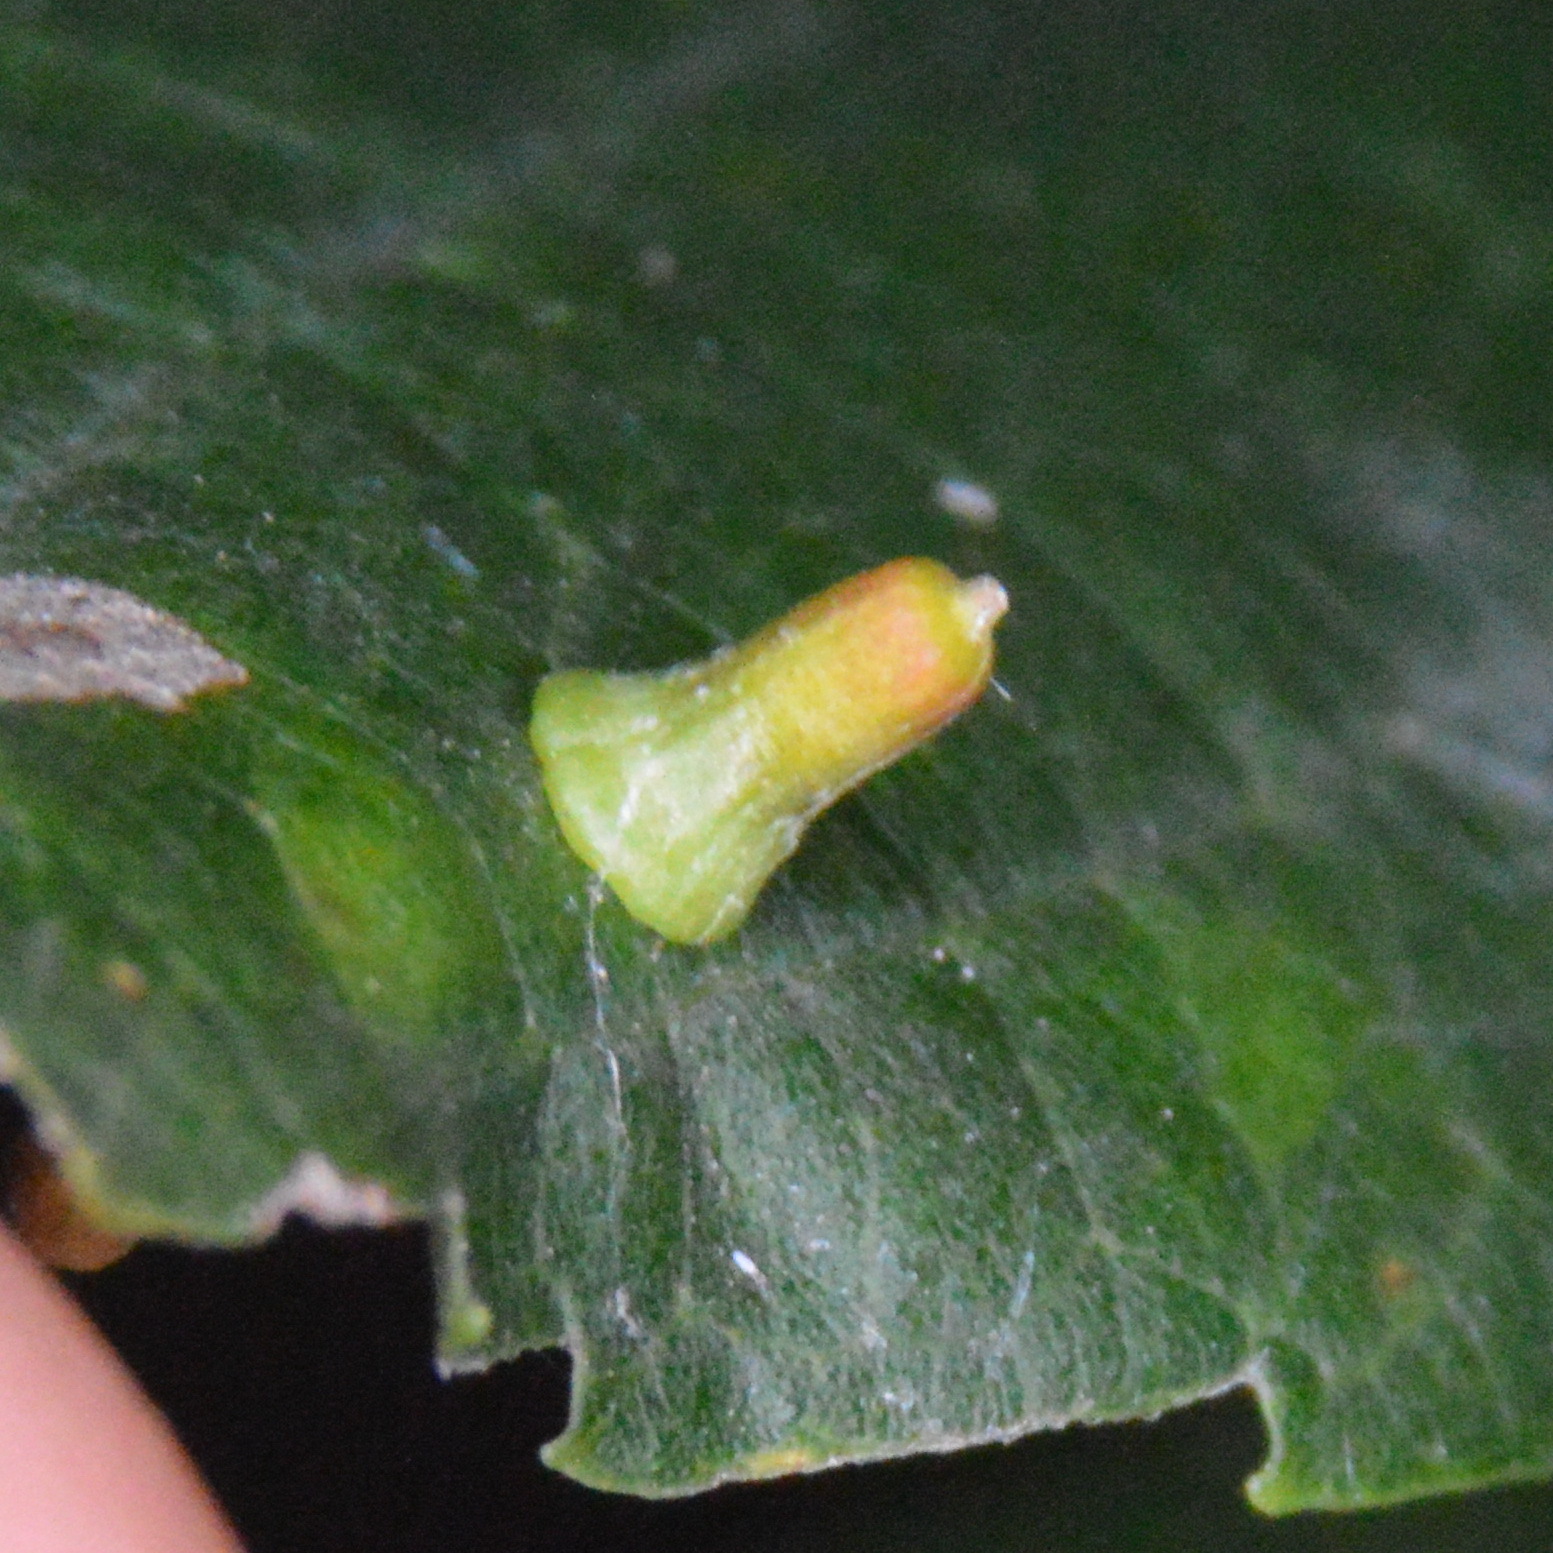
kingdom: Animalia
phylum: Arthropoda
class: Insecta
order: Diptera
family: Cecidomyiidae
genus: Celticecis
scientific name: Celticecis aciculata
